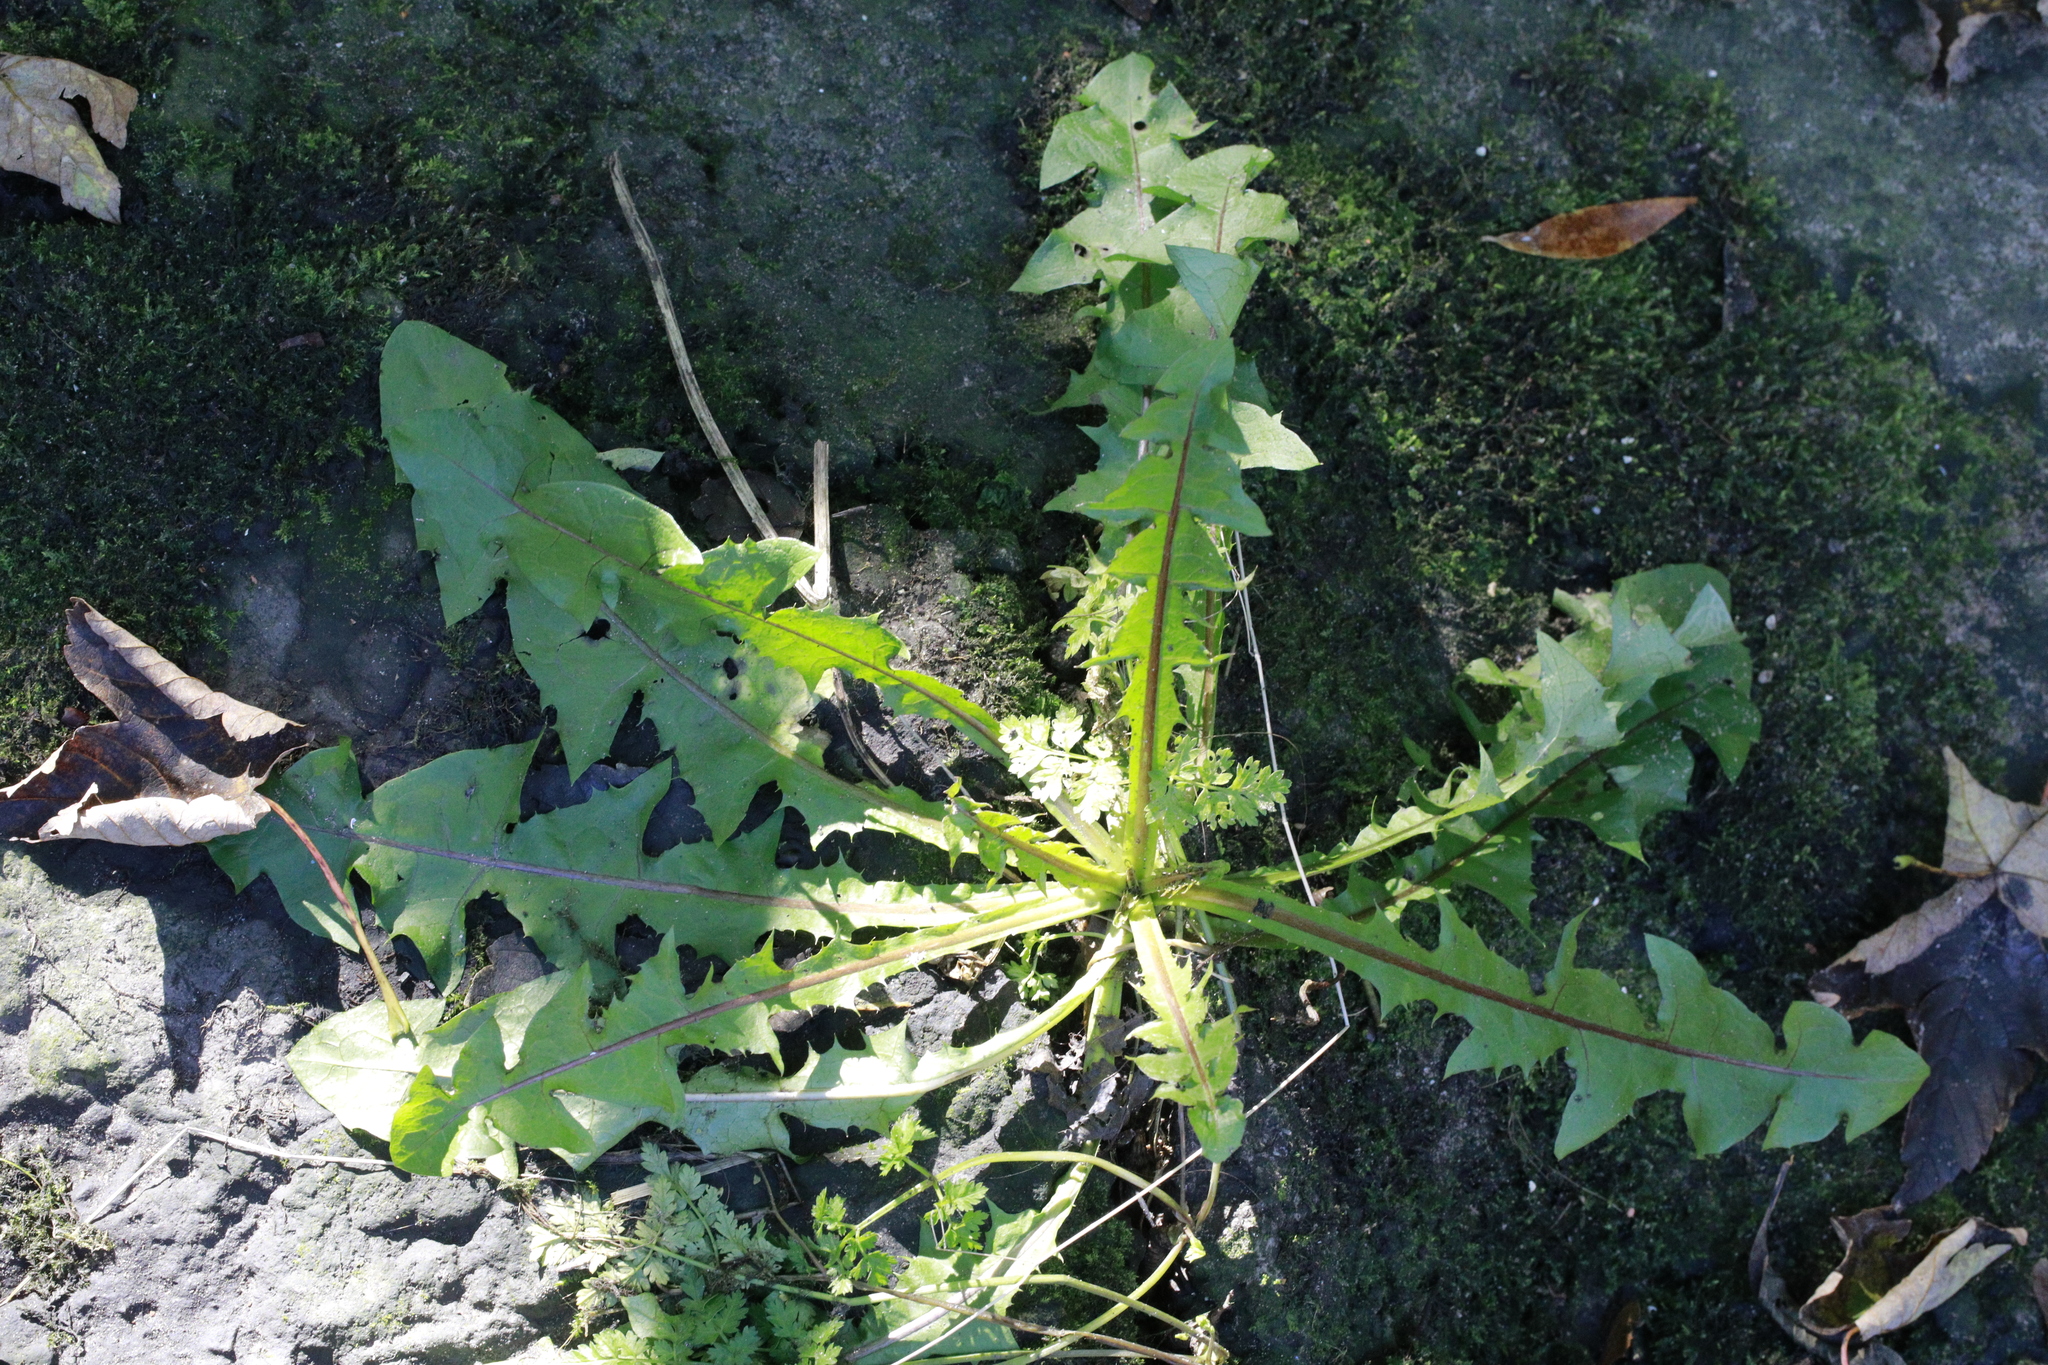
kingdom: Plantae
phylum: Tracheophyta
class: Magnoliopsida
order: Asterales
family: Asteraceae
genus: Taraxacum
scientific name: Taraxacum officinale
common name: Common dandelion
